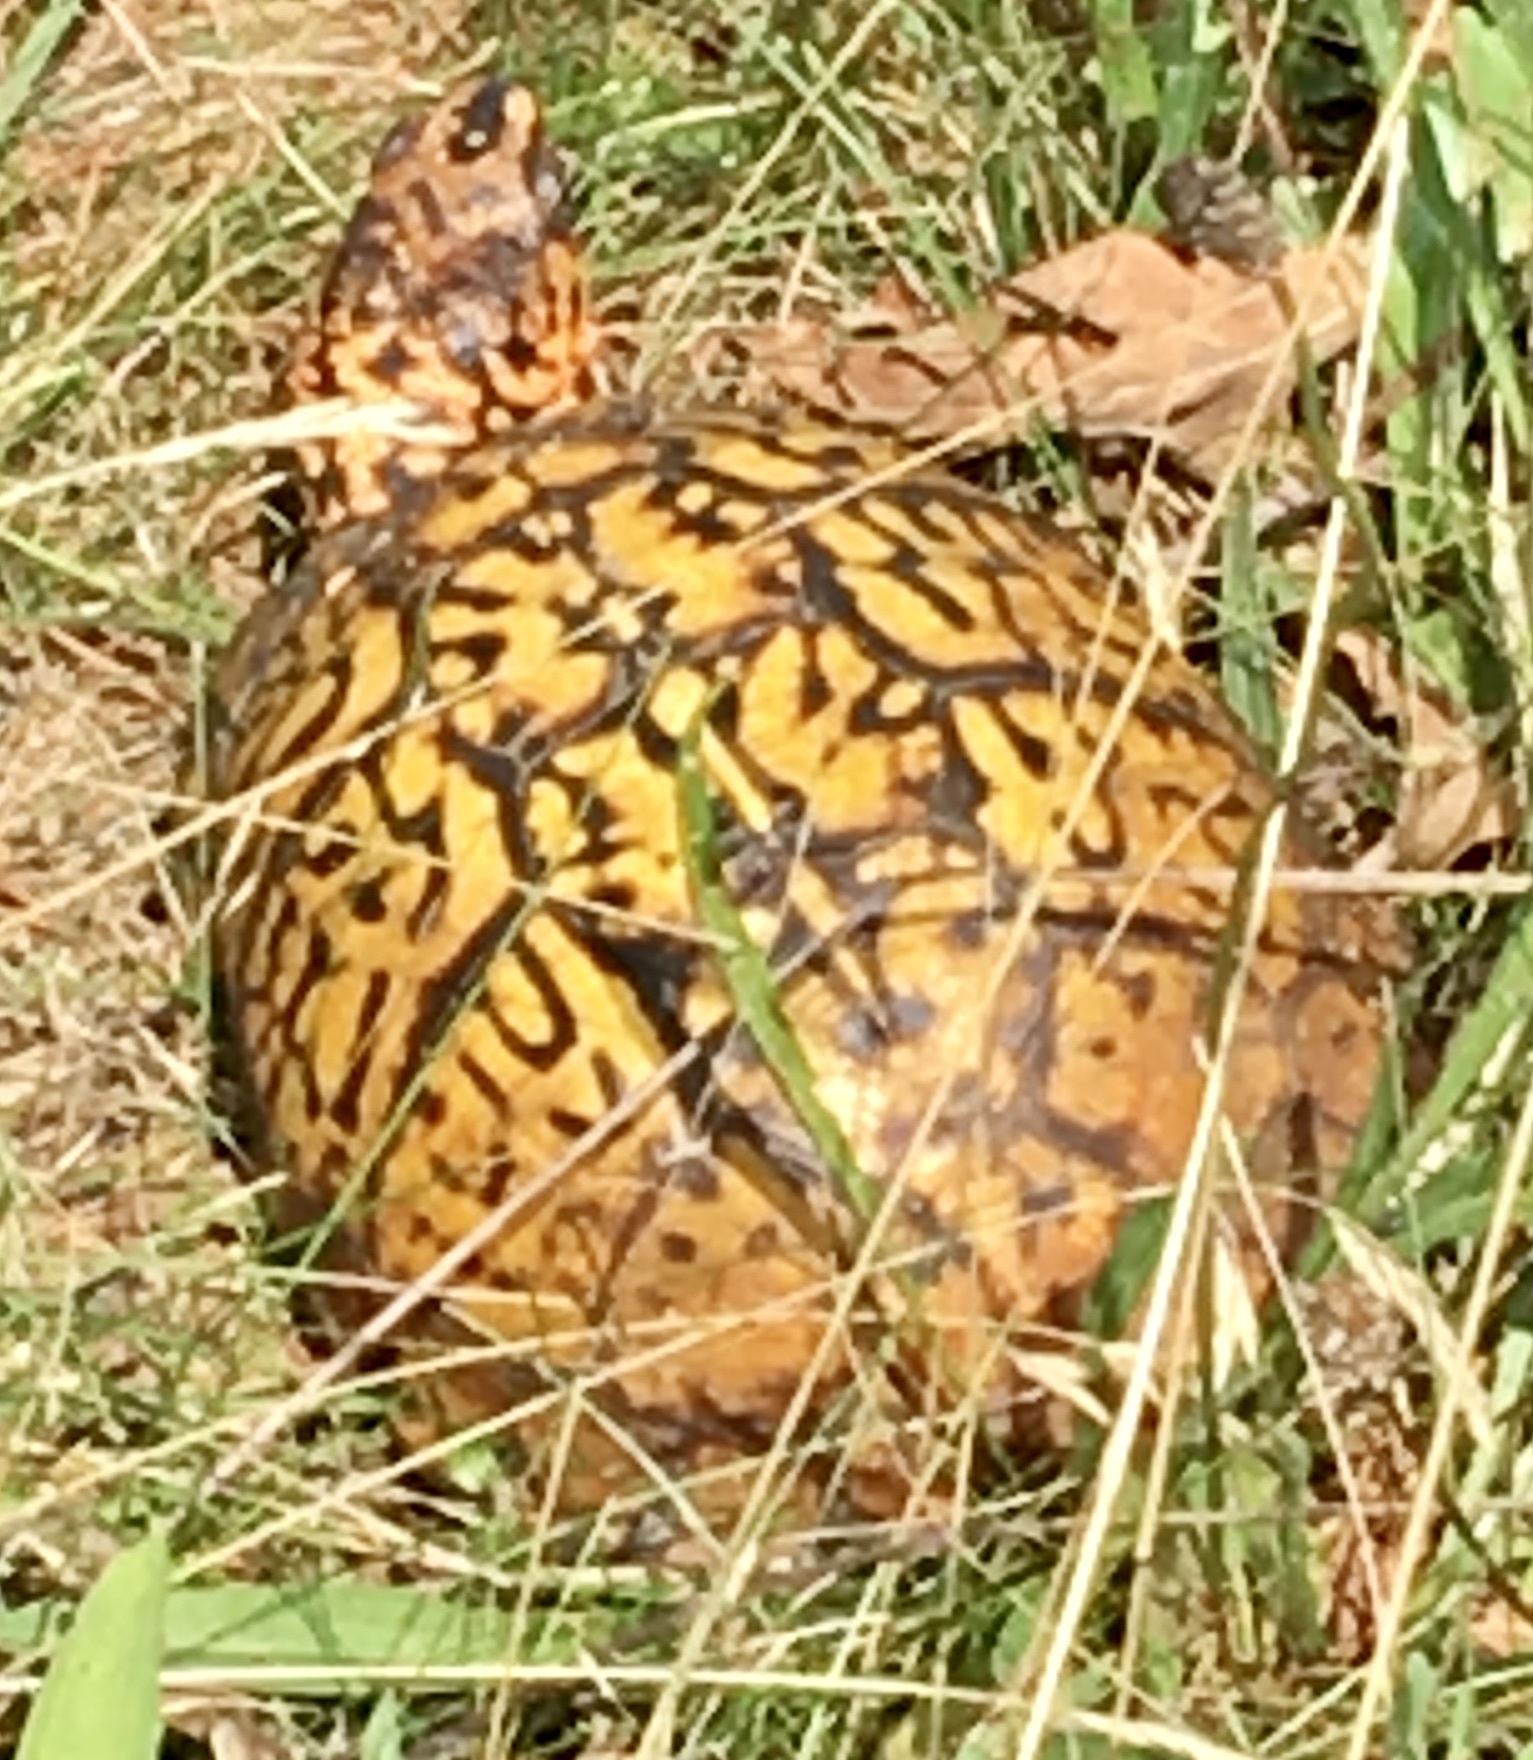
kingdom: Animalia
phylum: Chordata
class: Testudines
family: Emydidae
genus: Terrapene
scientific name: Terrapene carolina
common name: Common box turtle
